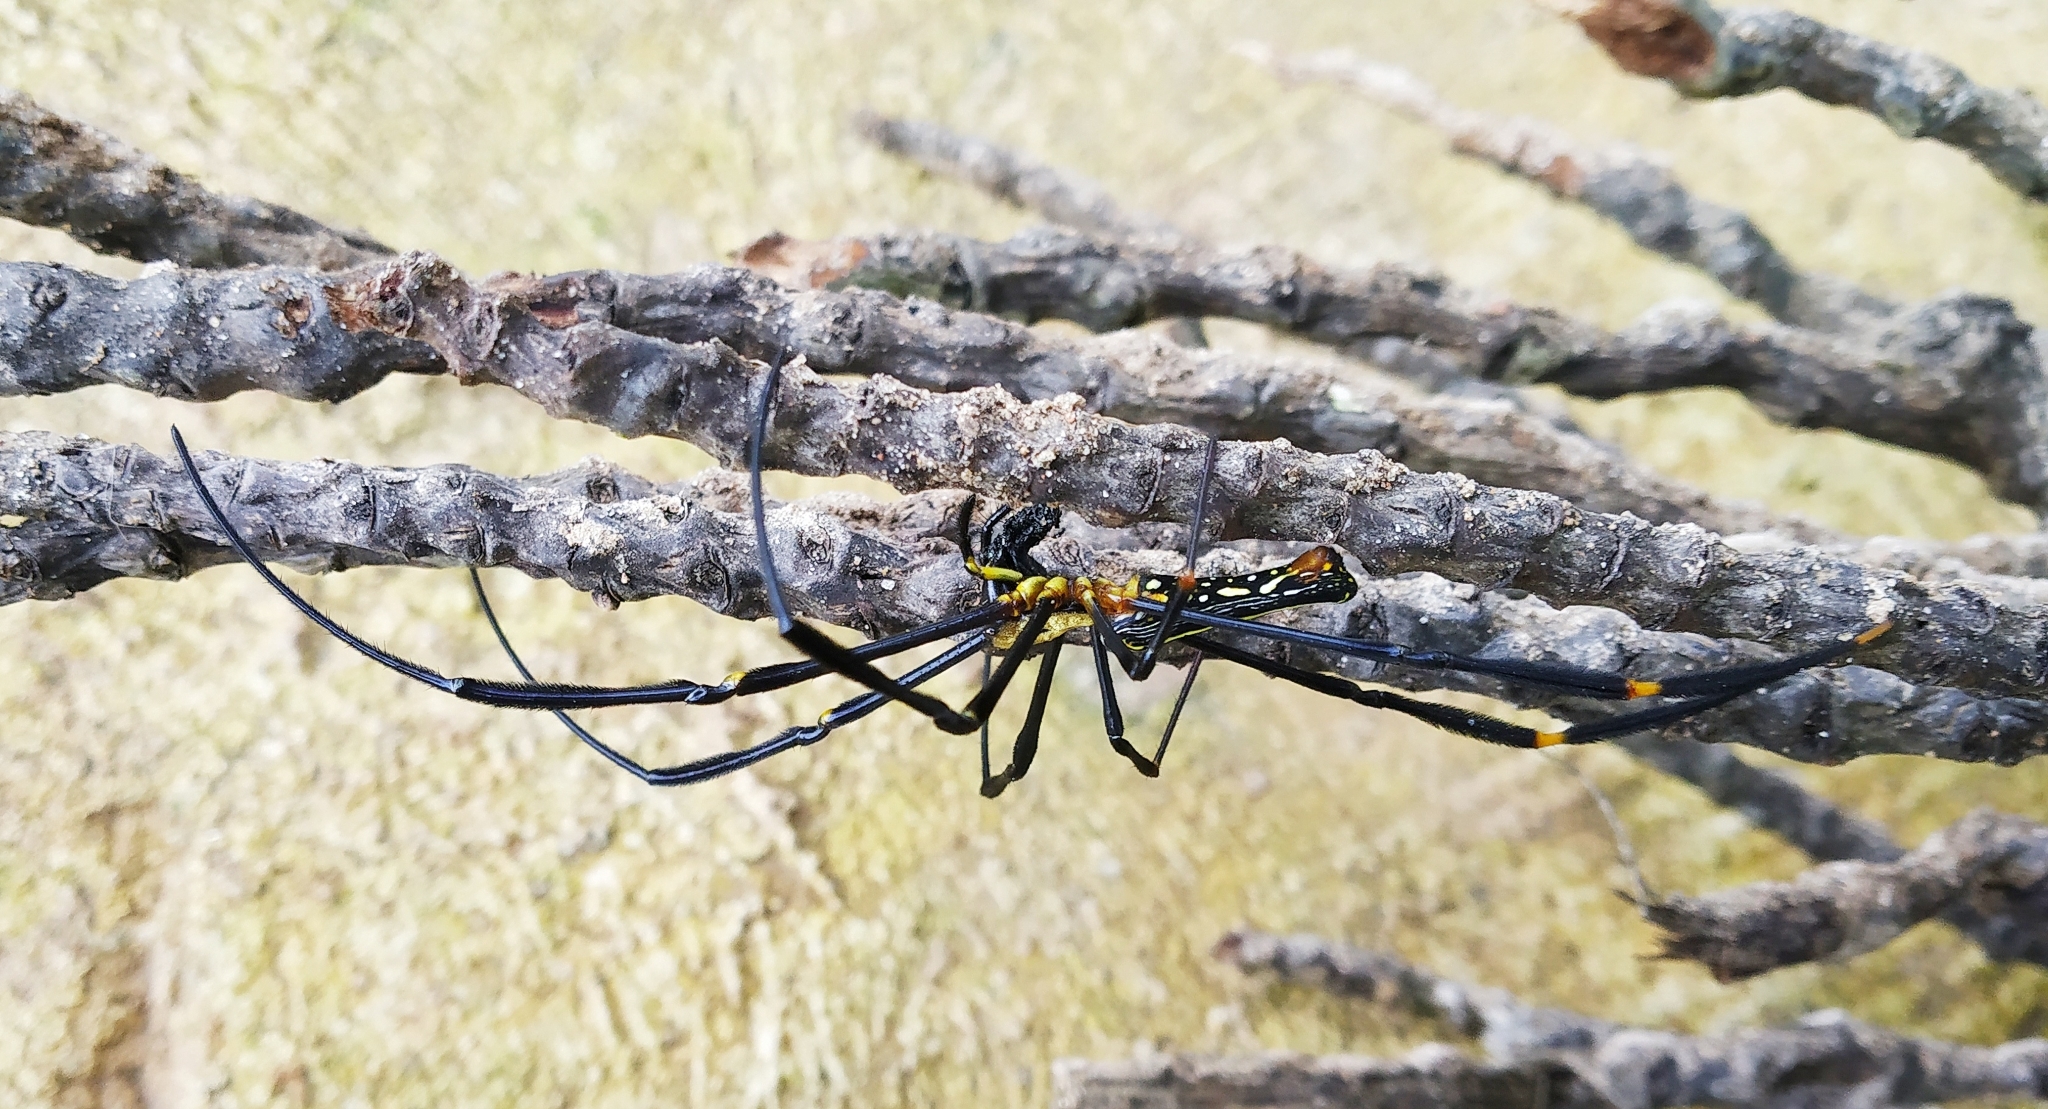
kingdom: Animalia
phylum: Arthropoda
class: Arachnida
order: Araneae
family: Araneidae
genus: Nephila
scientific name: Nephila pilipes
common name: Giant golden orb weaver
